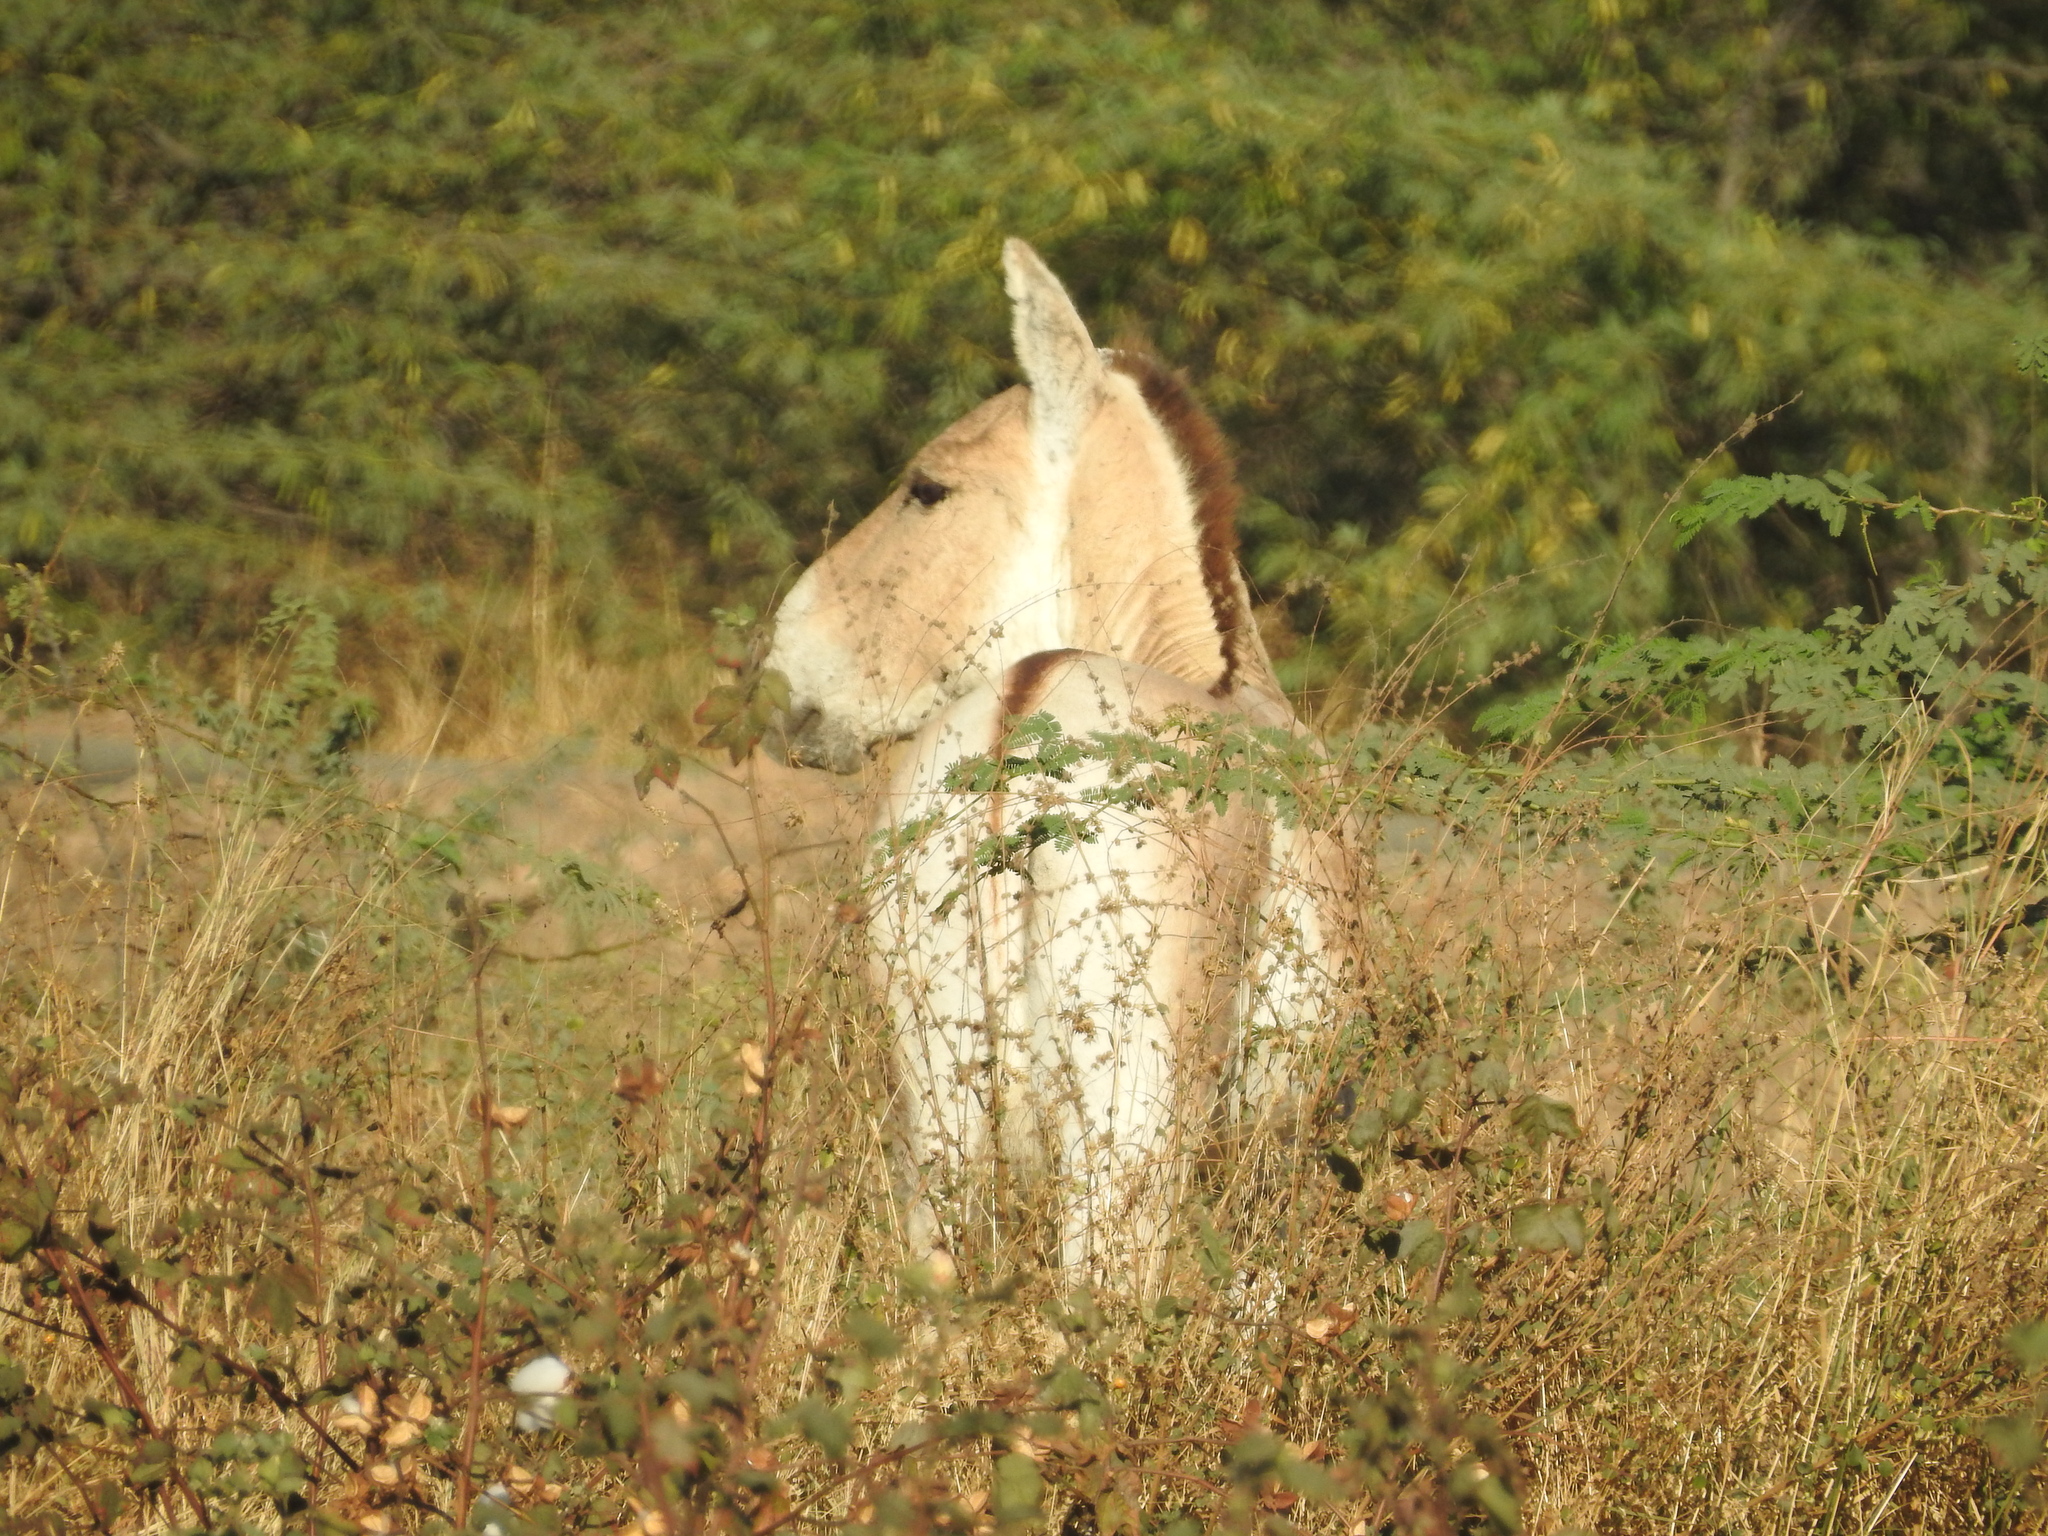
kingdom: Animalia
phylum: Chordata
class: Mammalia
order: Perissodactyla
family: Equidae
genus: Equus
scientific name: Equus khur
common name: Indian wild ass
